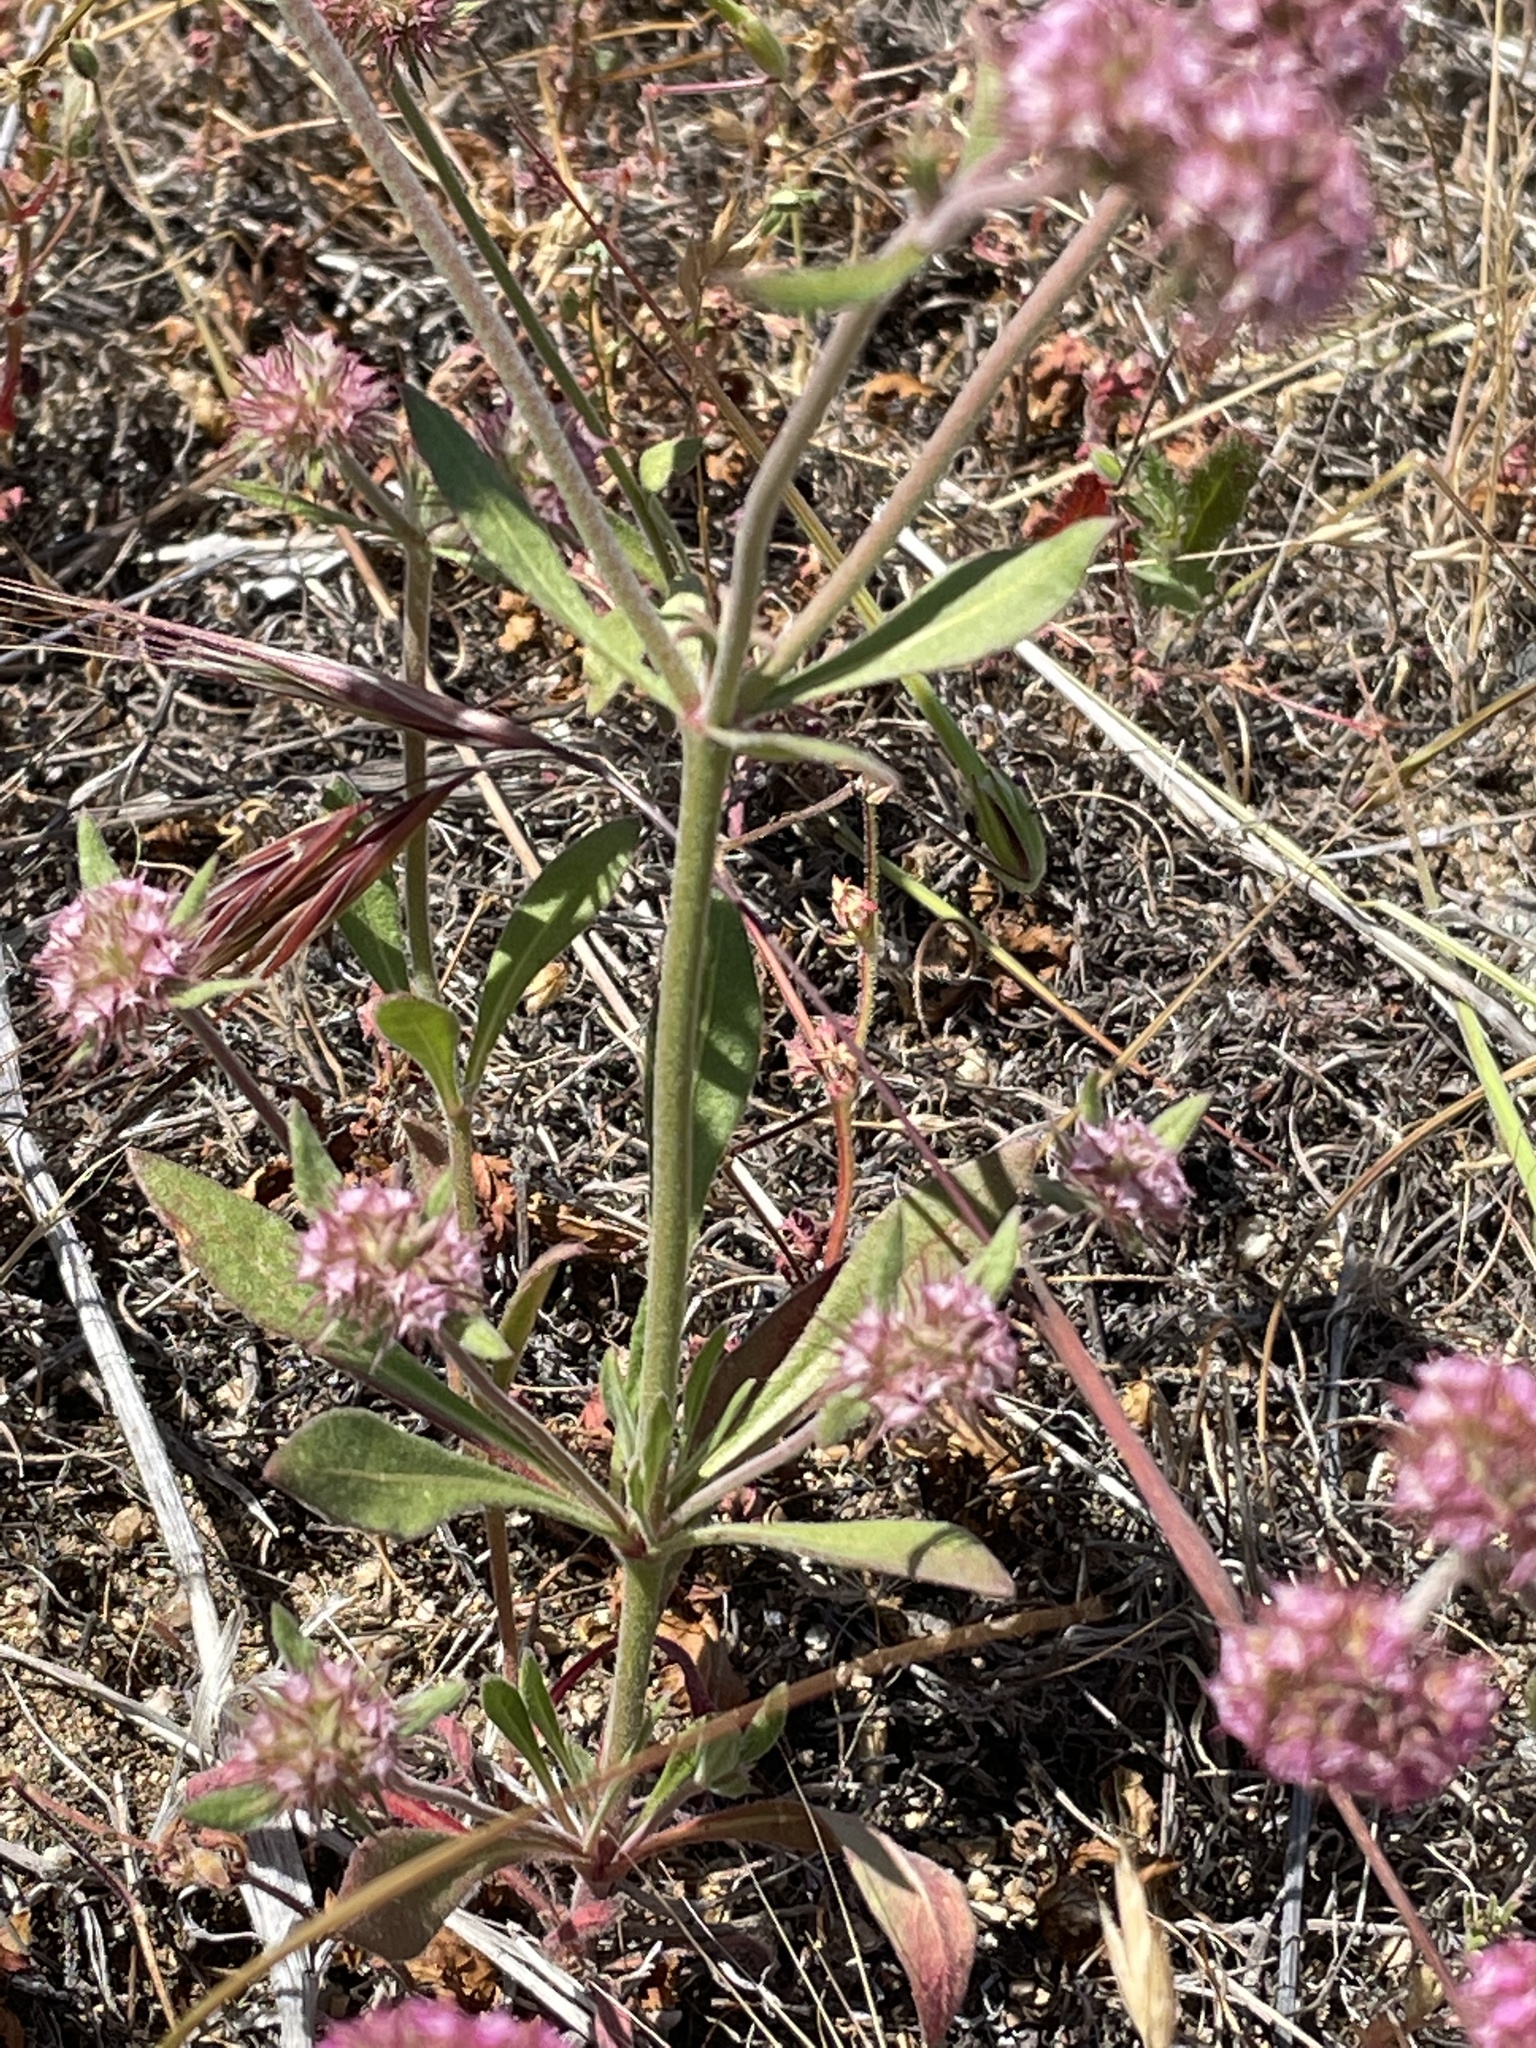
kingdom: Plantae
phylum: Tracheophyta
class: Magnoliopsida
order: Caryophyllales
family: Polygonaceae
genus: Chorizanthe
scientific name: Chorizanthe douglasii
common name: Douglas's spineflower
